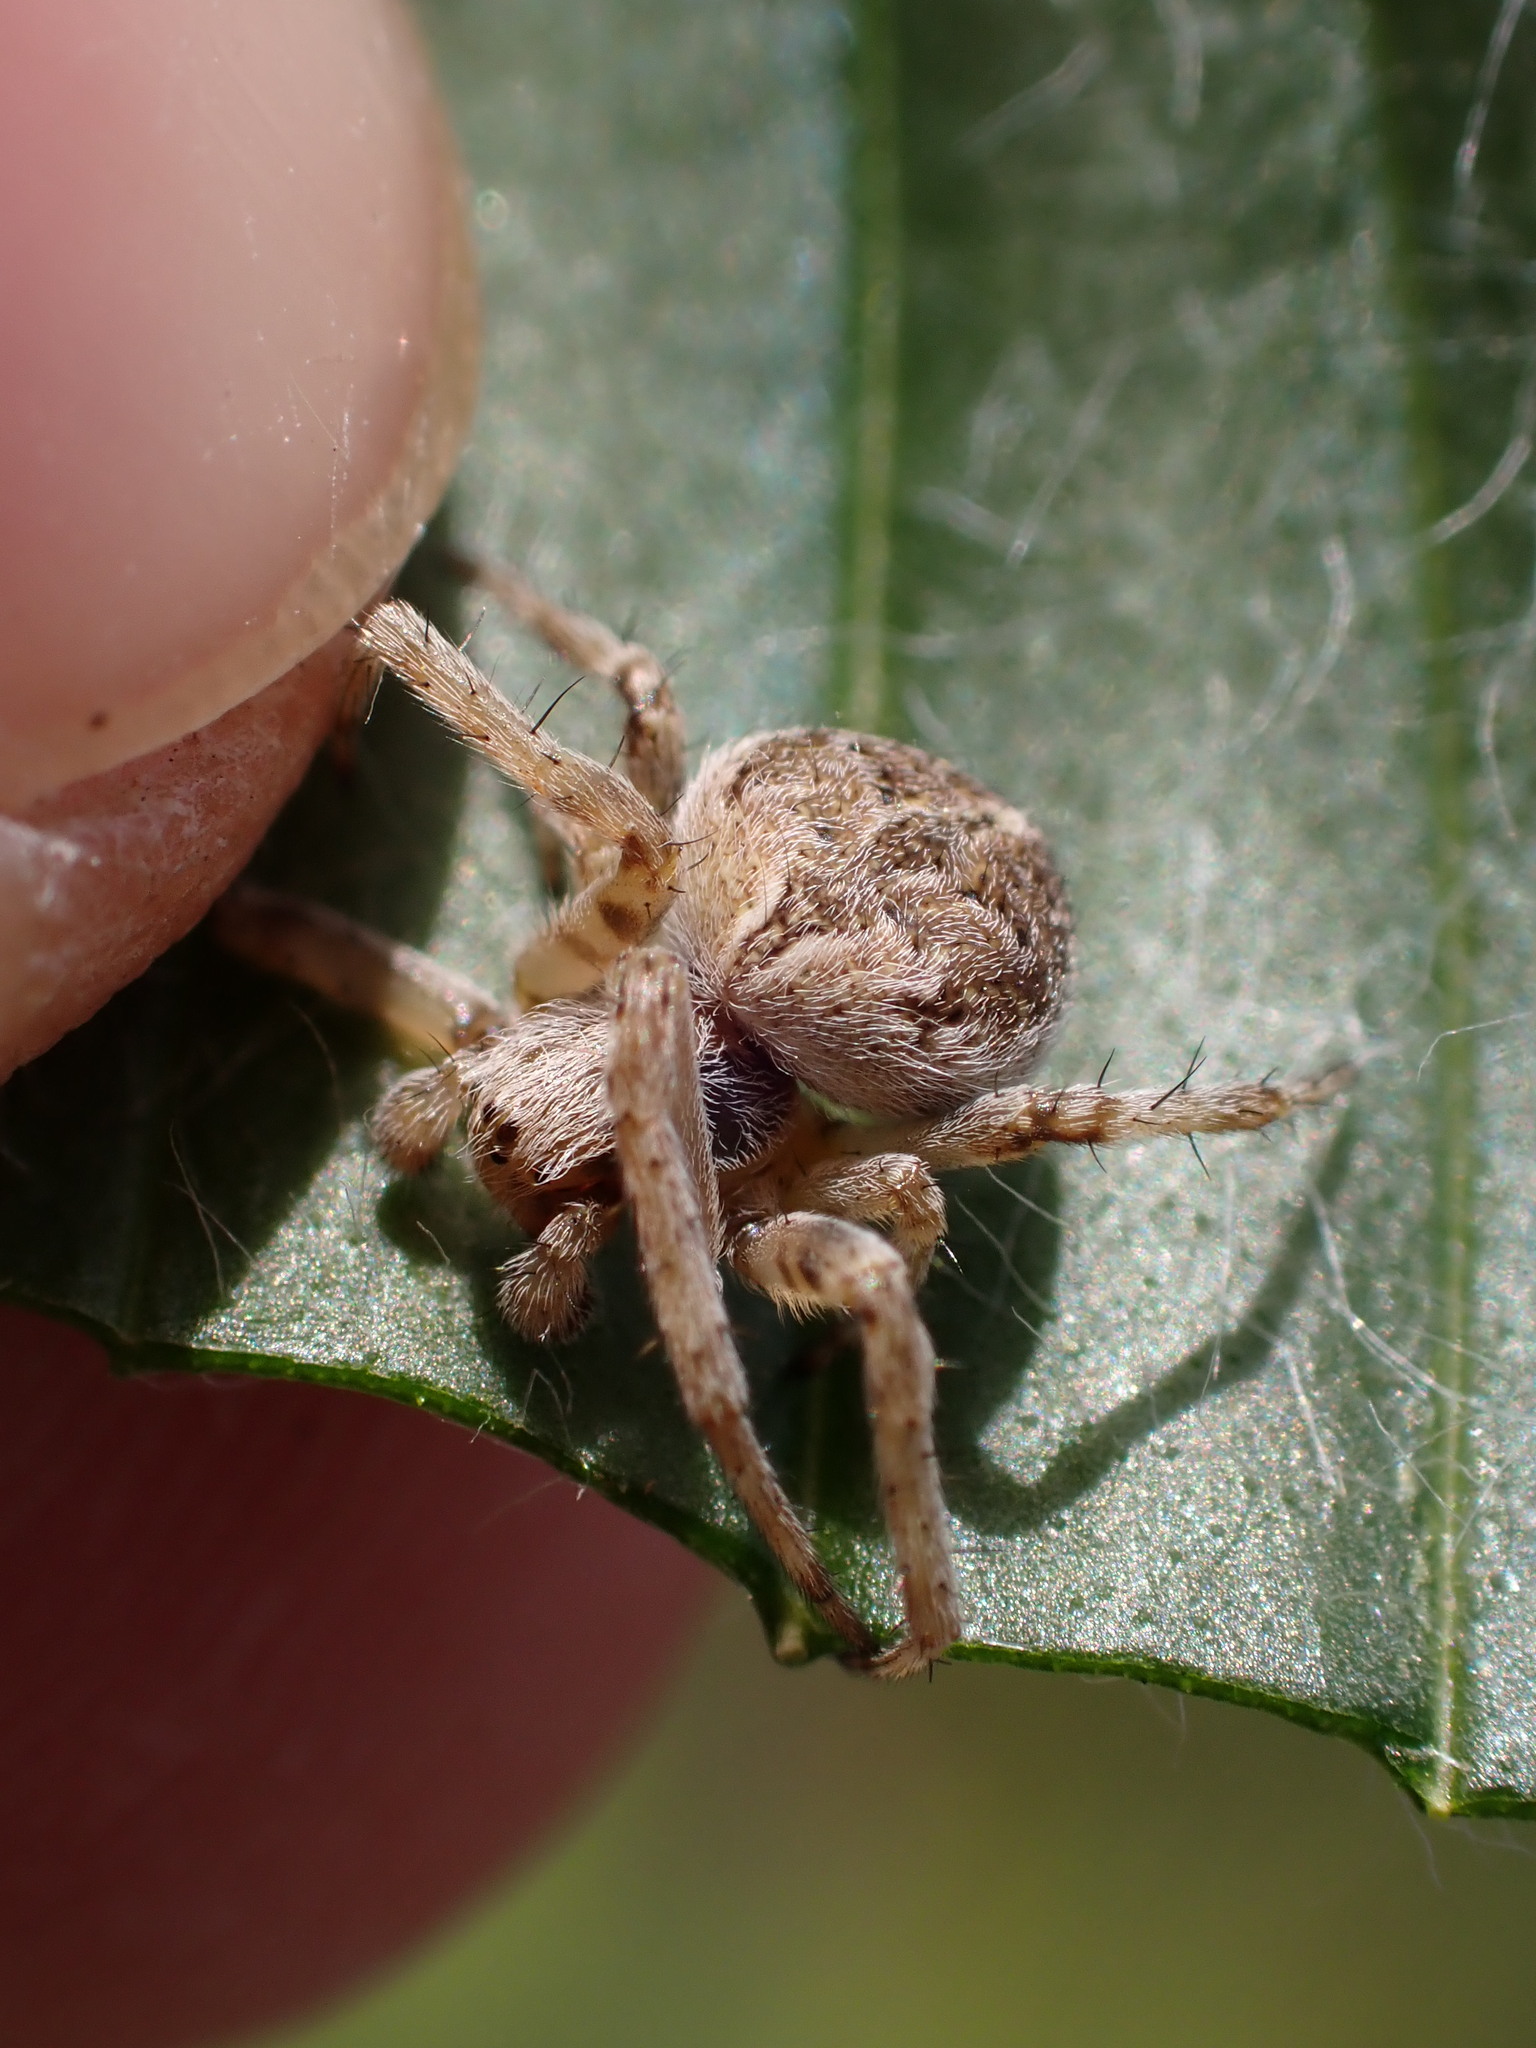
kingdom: Animalia
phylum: Arthropoda
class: Arachnida
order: Araneae
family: Araneidae
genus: Agalenatea
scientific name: Agalenatea redii
